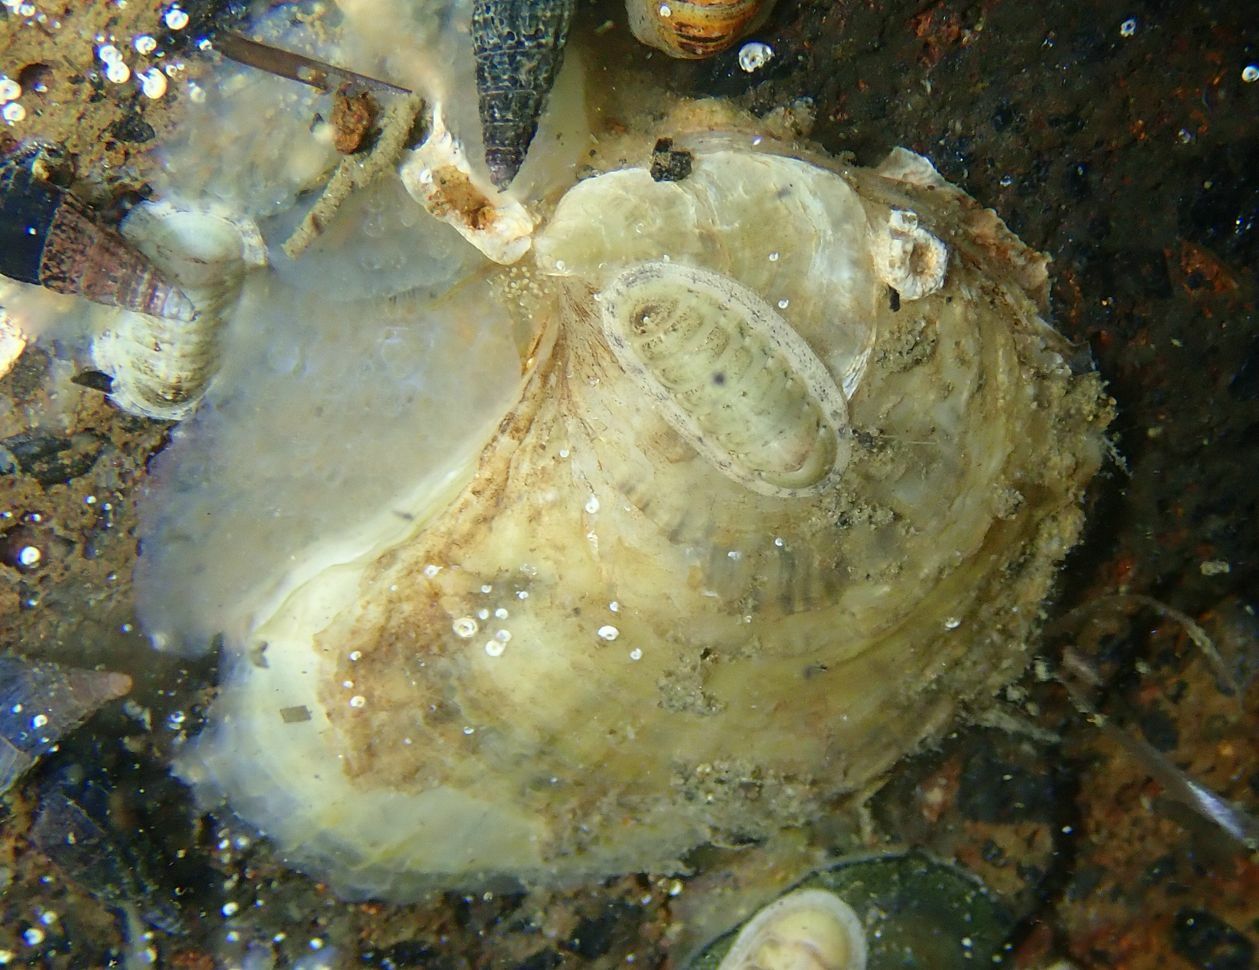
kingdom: Animalia
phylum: Mollusca
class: Bivalvia
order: Ostreida
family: Ostreidae
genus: Ostrea
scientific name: Ostrea chilensis
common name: Chilean oyster
